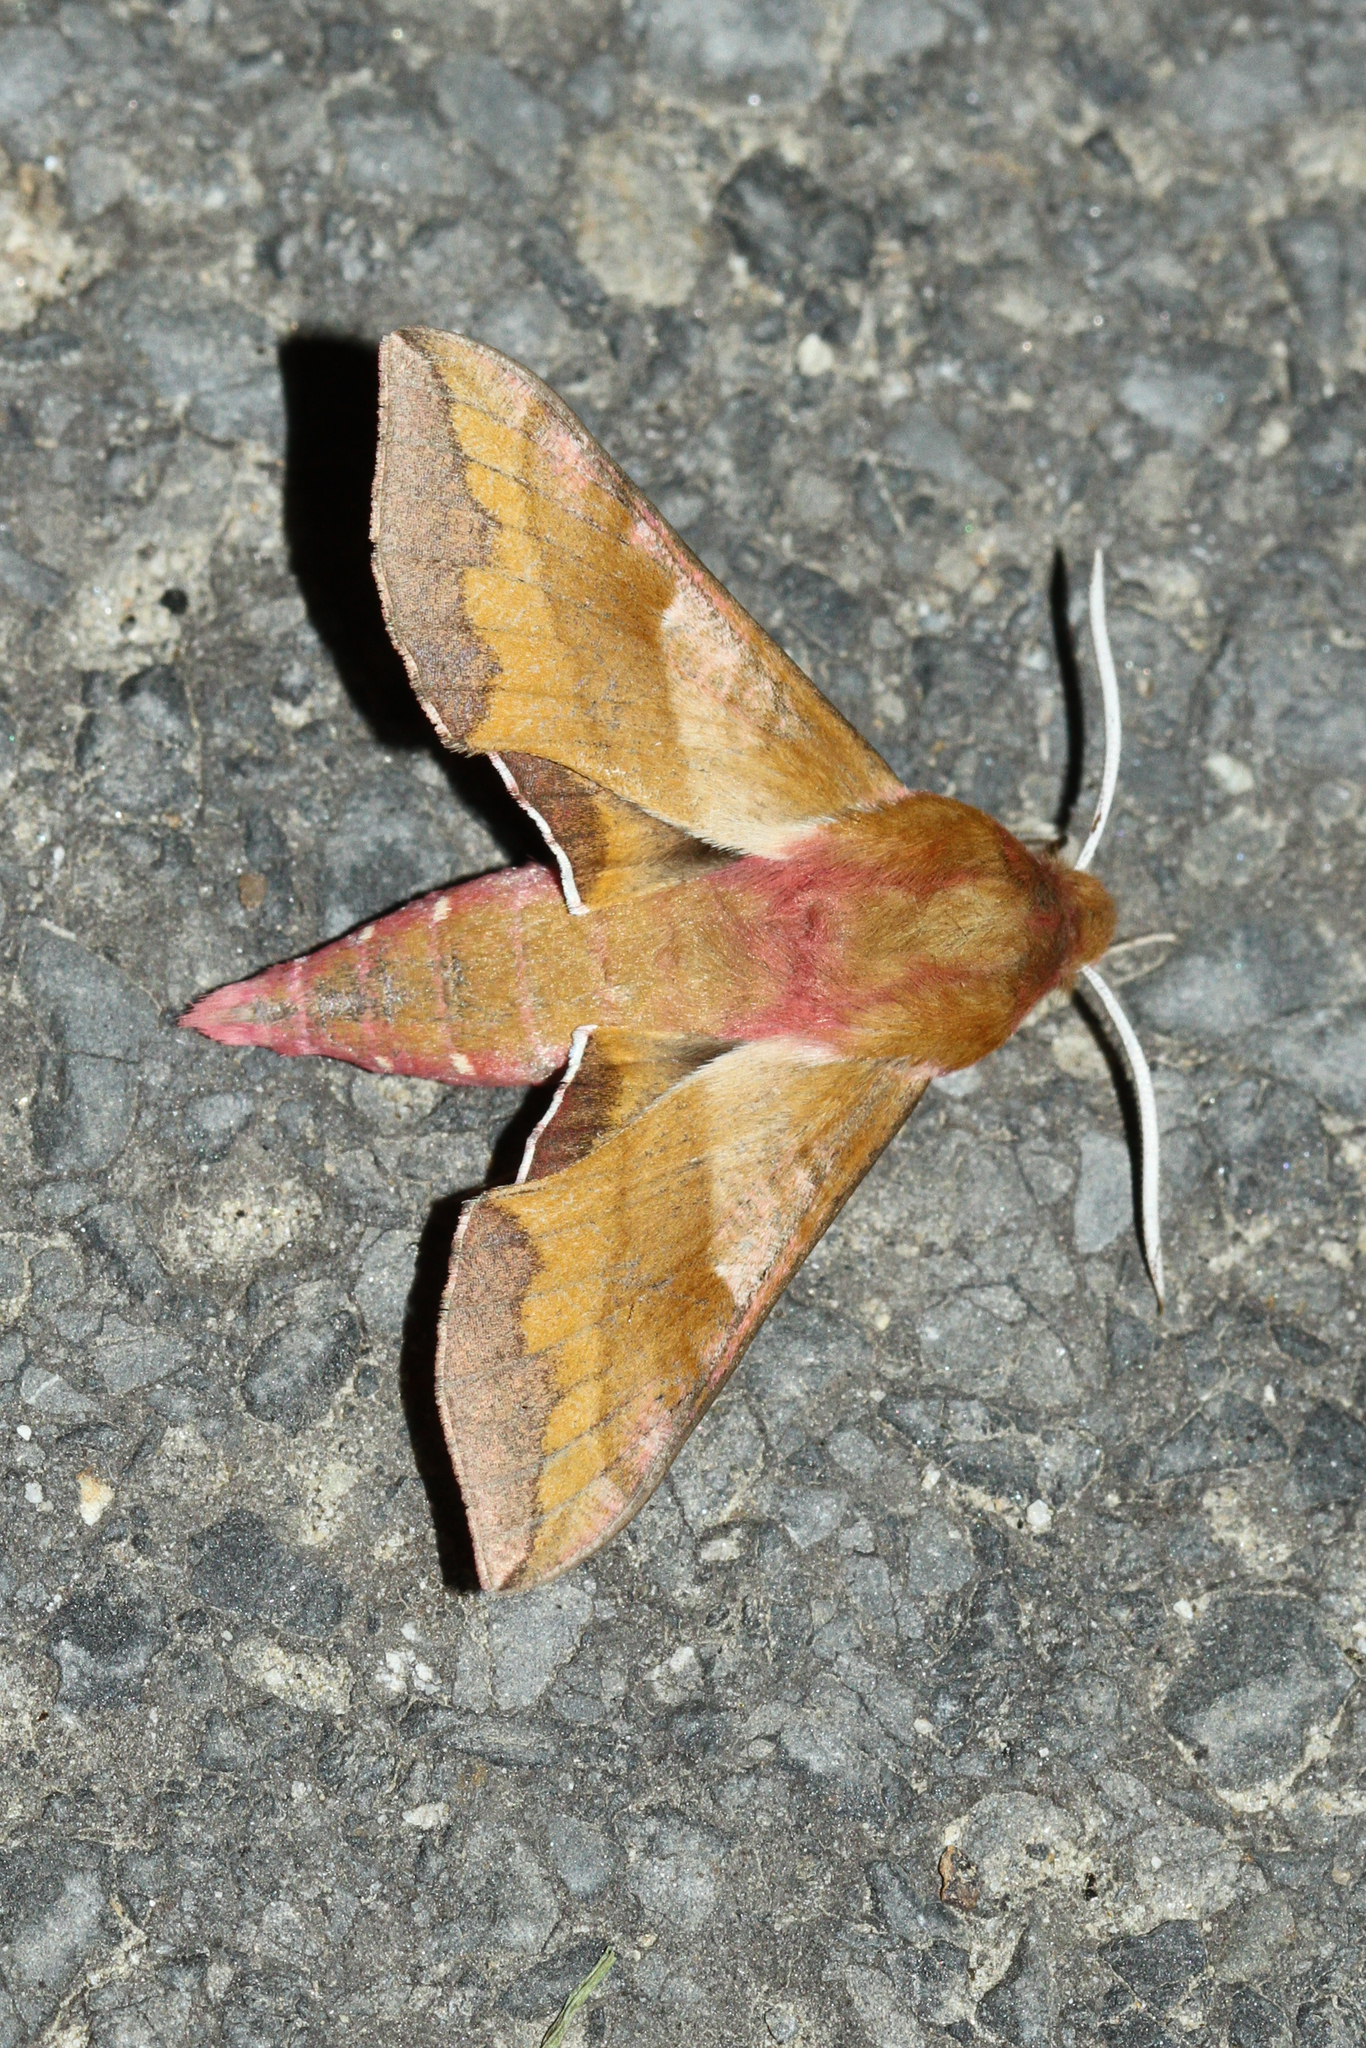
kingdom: Animalia
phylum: Arthropoda
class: Insecta
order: Lepidoptera
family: Sphingidae
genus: Deilephila
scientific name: Deilephila porcellus
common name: Small elephant hawk-moth
